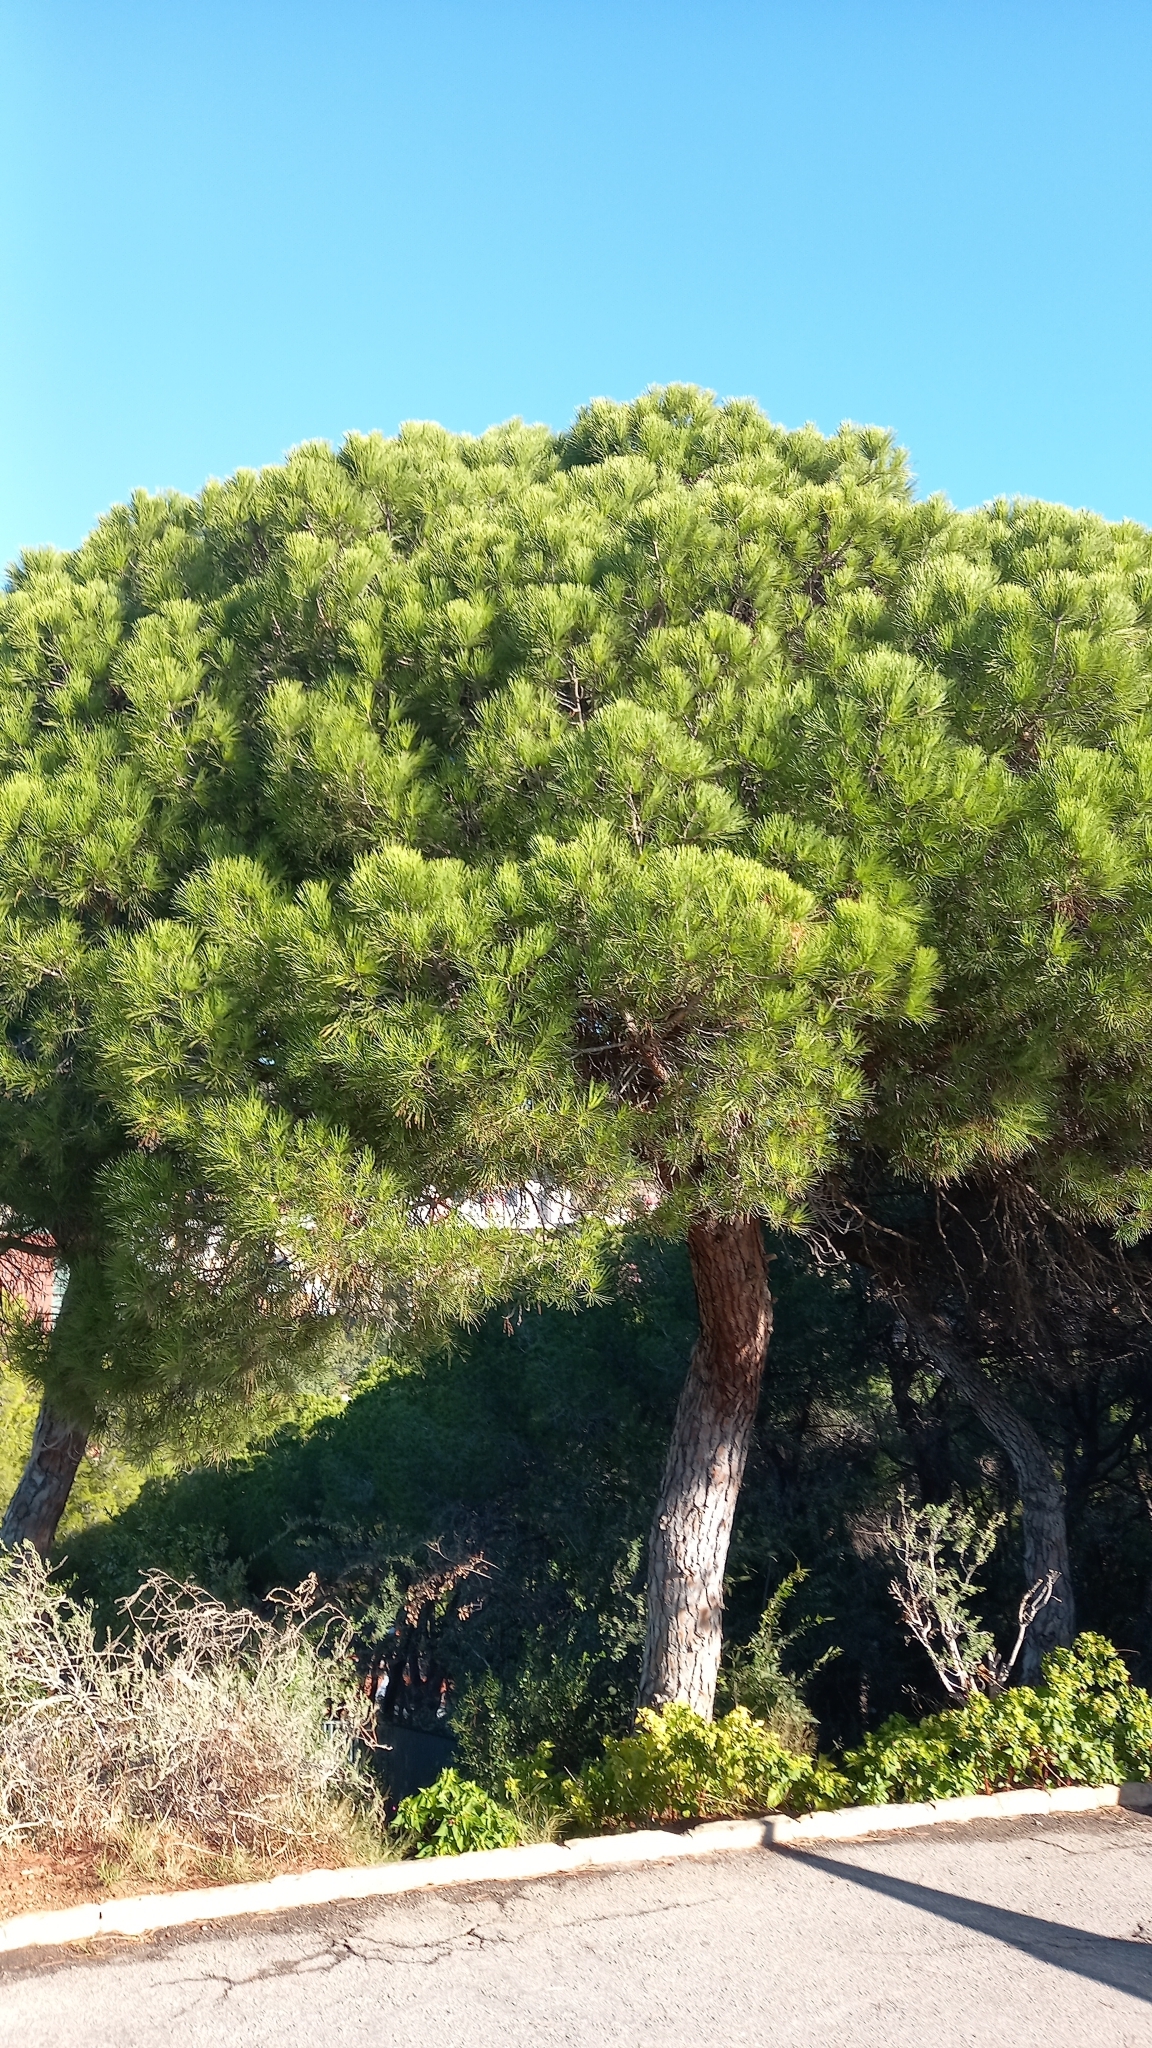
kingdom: Plantae
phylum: Tracheophyta
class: Pinopsida
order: Pinales
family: Pinaceae
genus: Pinus
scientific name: Pinus pinea
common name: Italian stone pine
